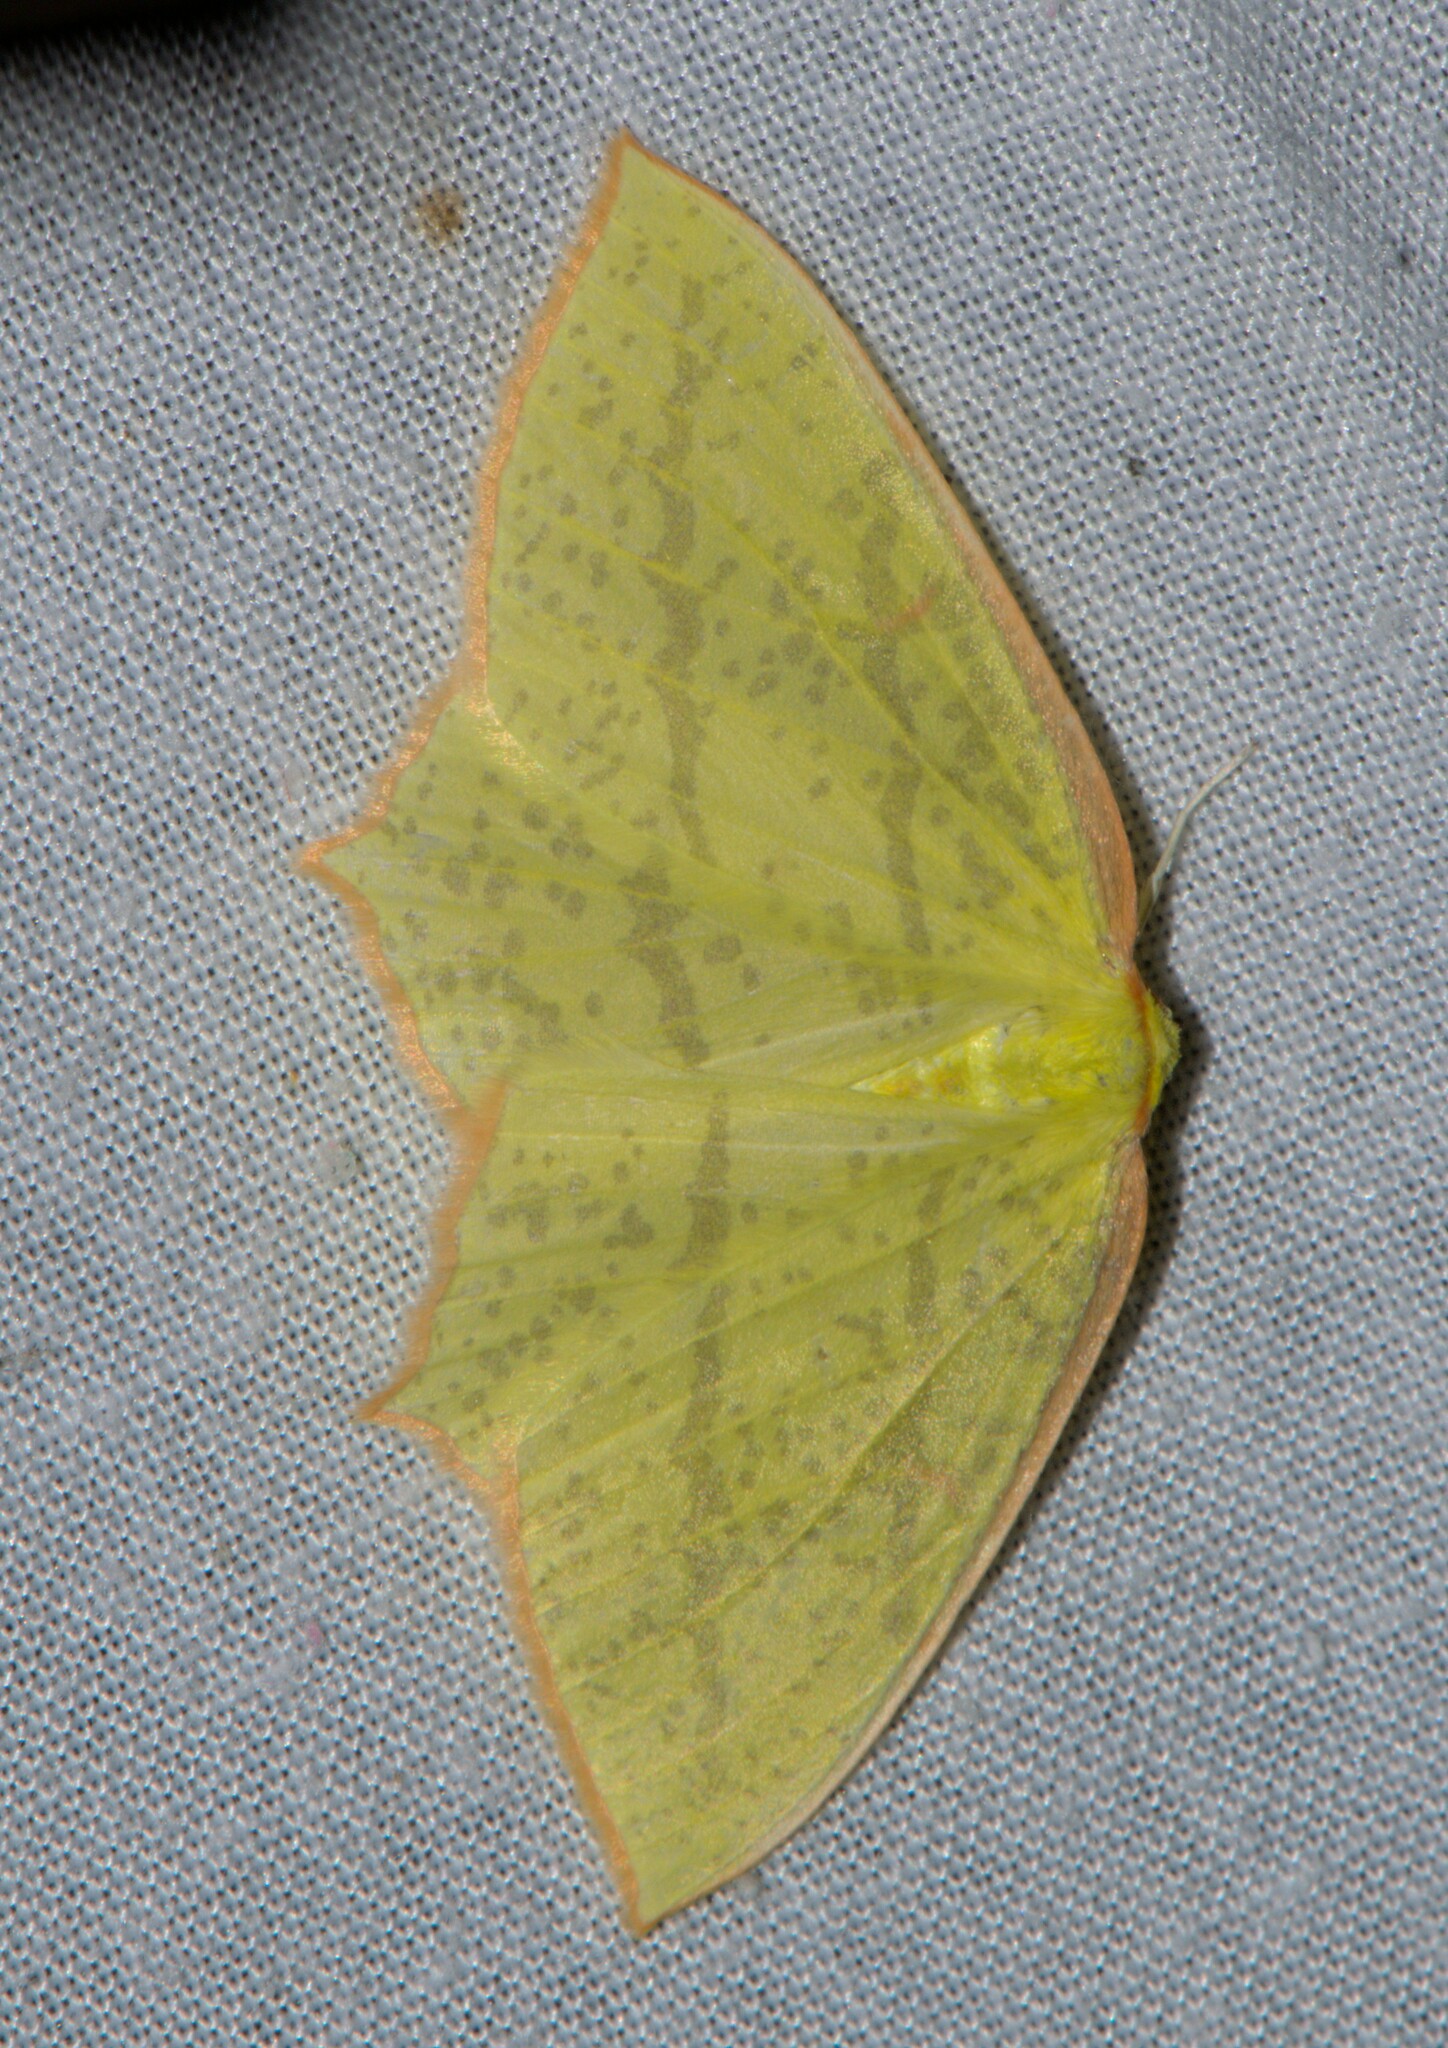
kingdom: Animalia
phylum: Arthropoda
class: Insecta
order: Lepidoptera
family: Geometridae
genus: Sirinopteryx
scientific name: Sirinopteryx rufivinctata
